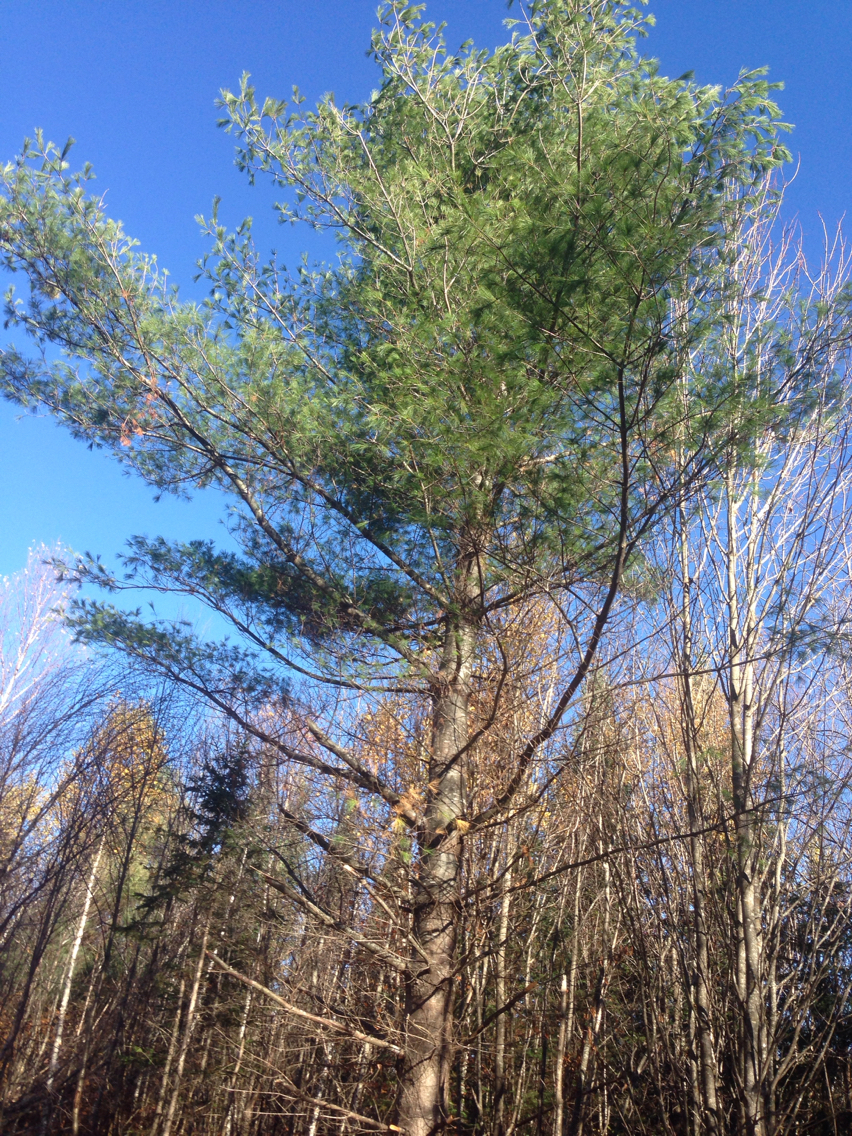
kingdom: Plantae
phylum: Tracheophyta
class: Pinopsida
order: Pinales
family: Pinaceae
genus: Pinus
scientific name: Pinus strobus
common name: Weymouth pine
